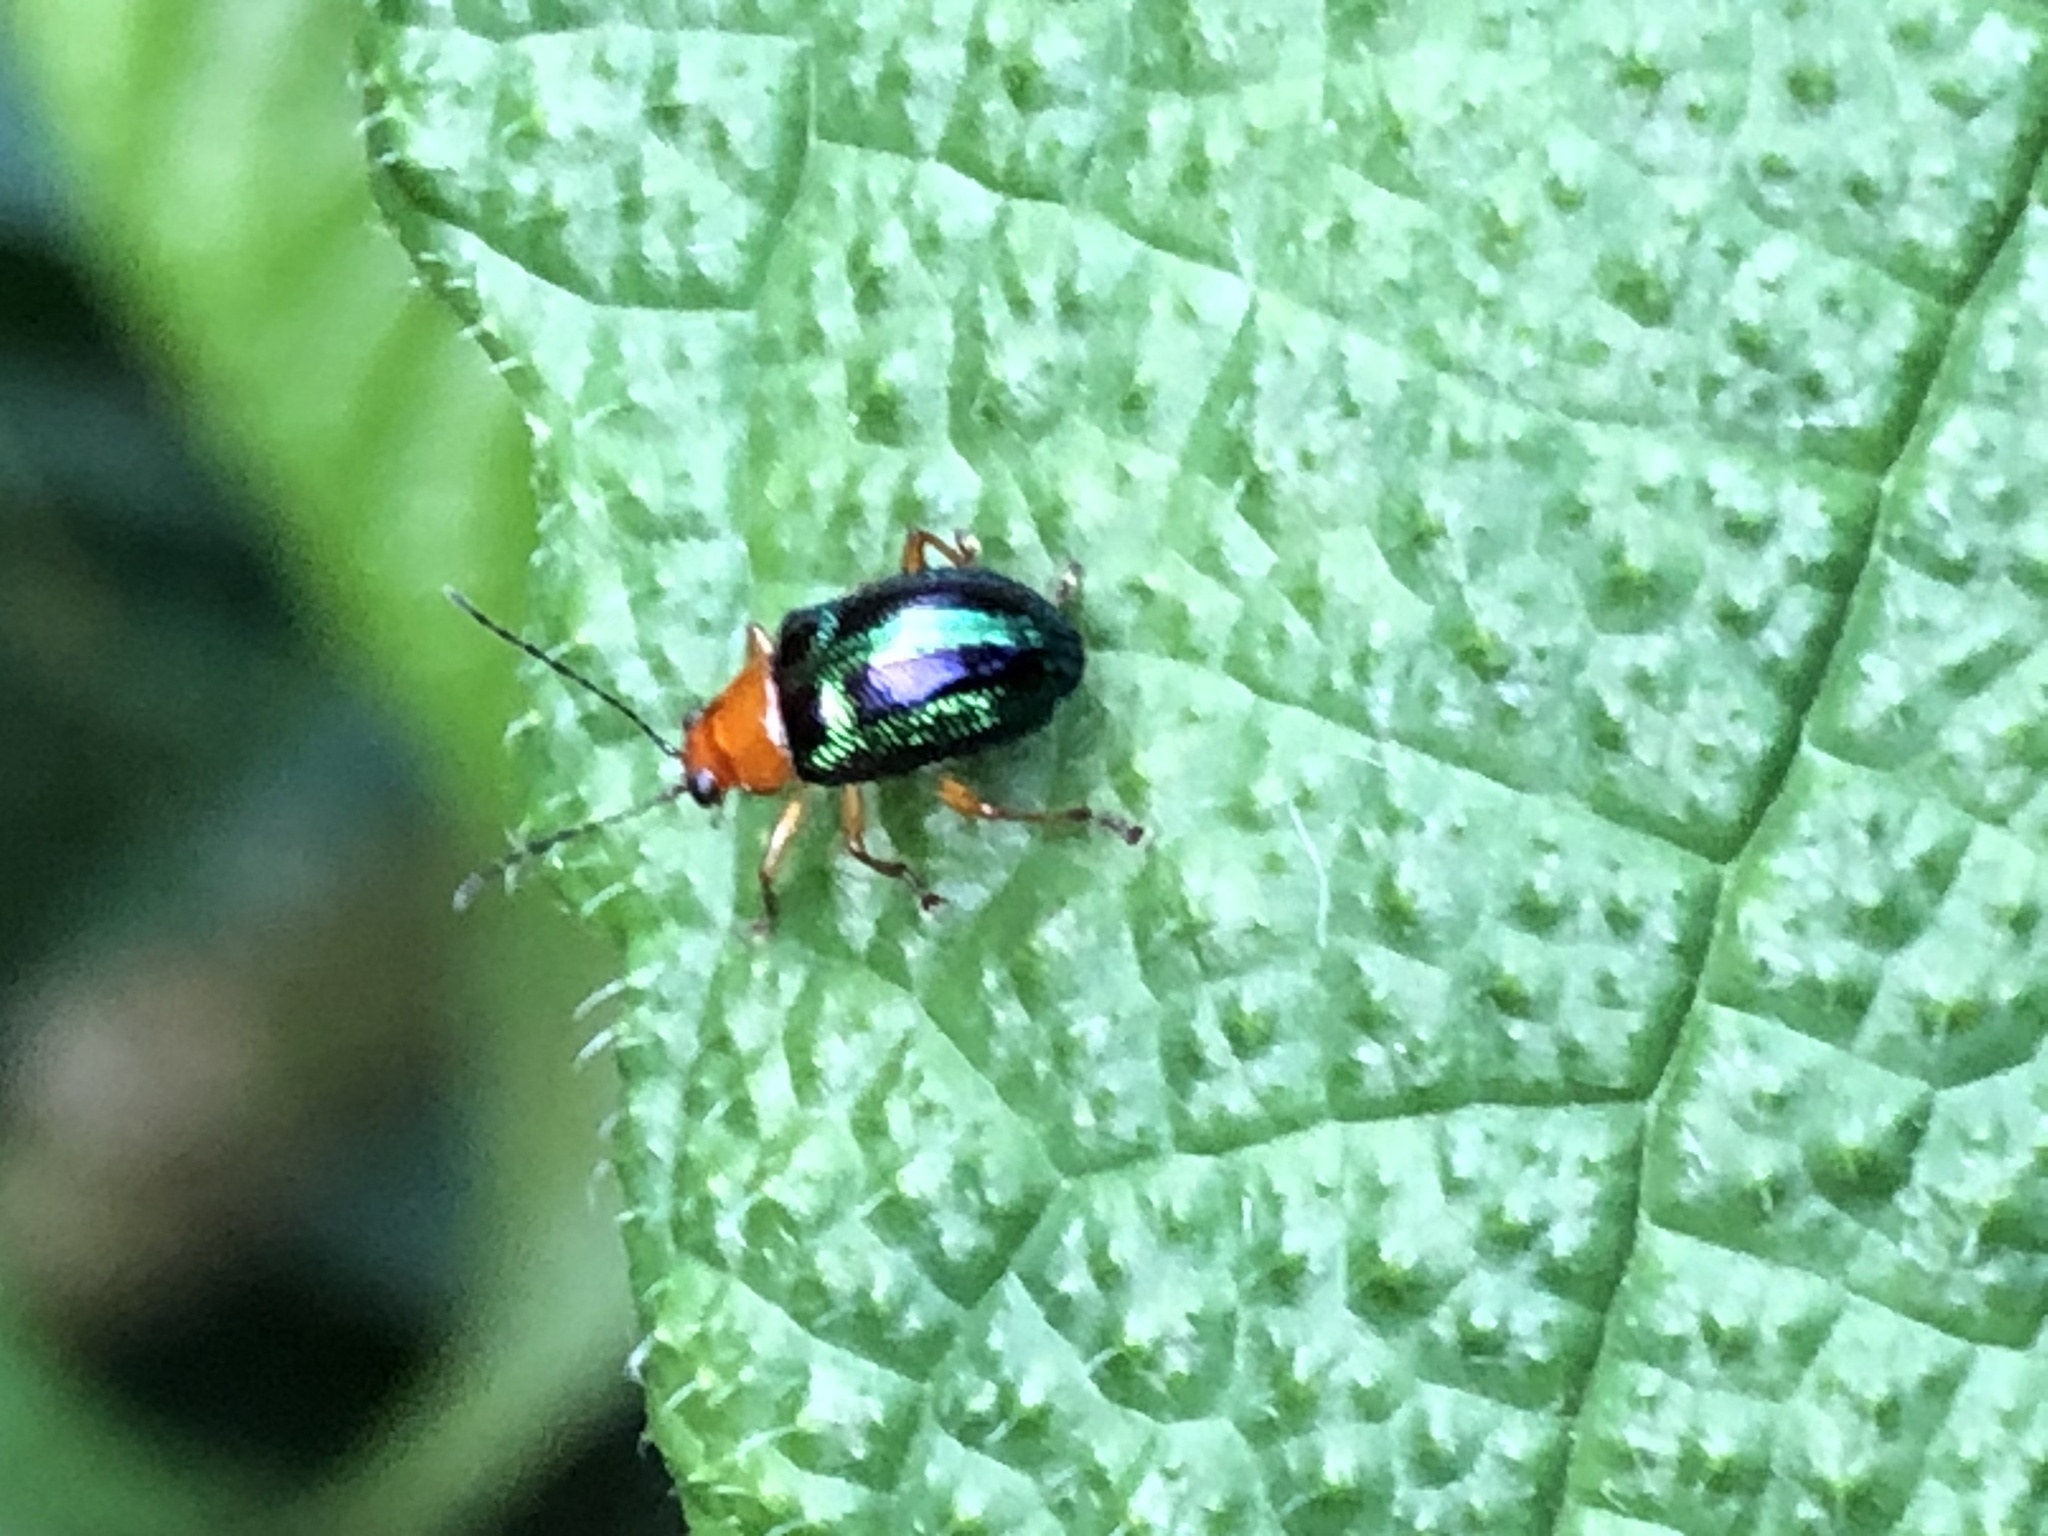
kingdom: Animalia
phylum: Arthropoda
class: Insecta
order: Coleoptera
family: Chrysomelidae
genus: Percolaspis
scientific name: Percolaspis
